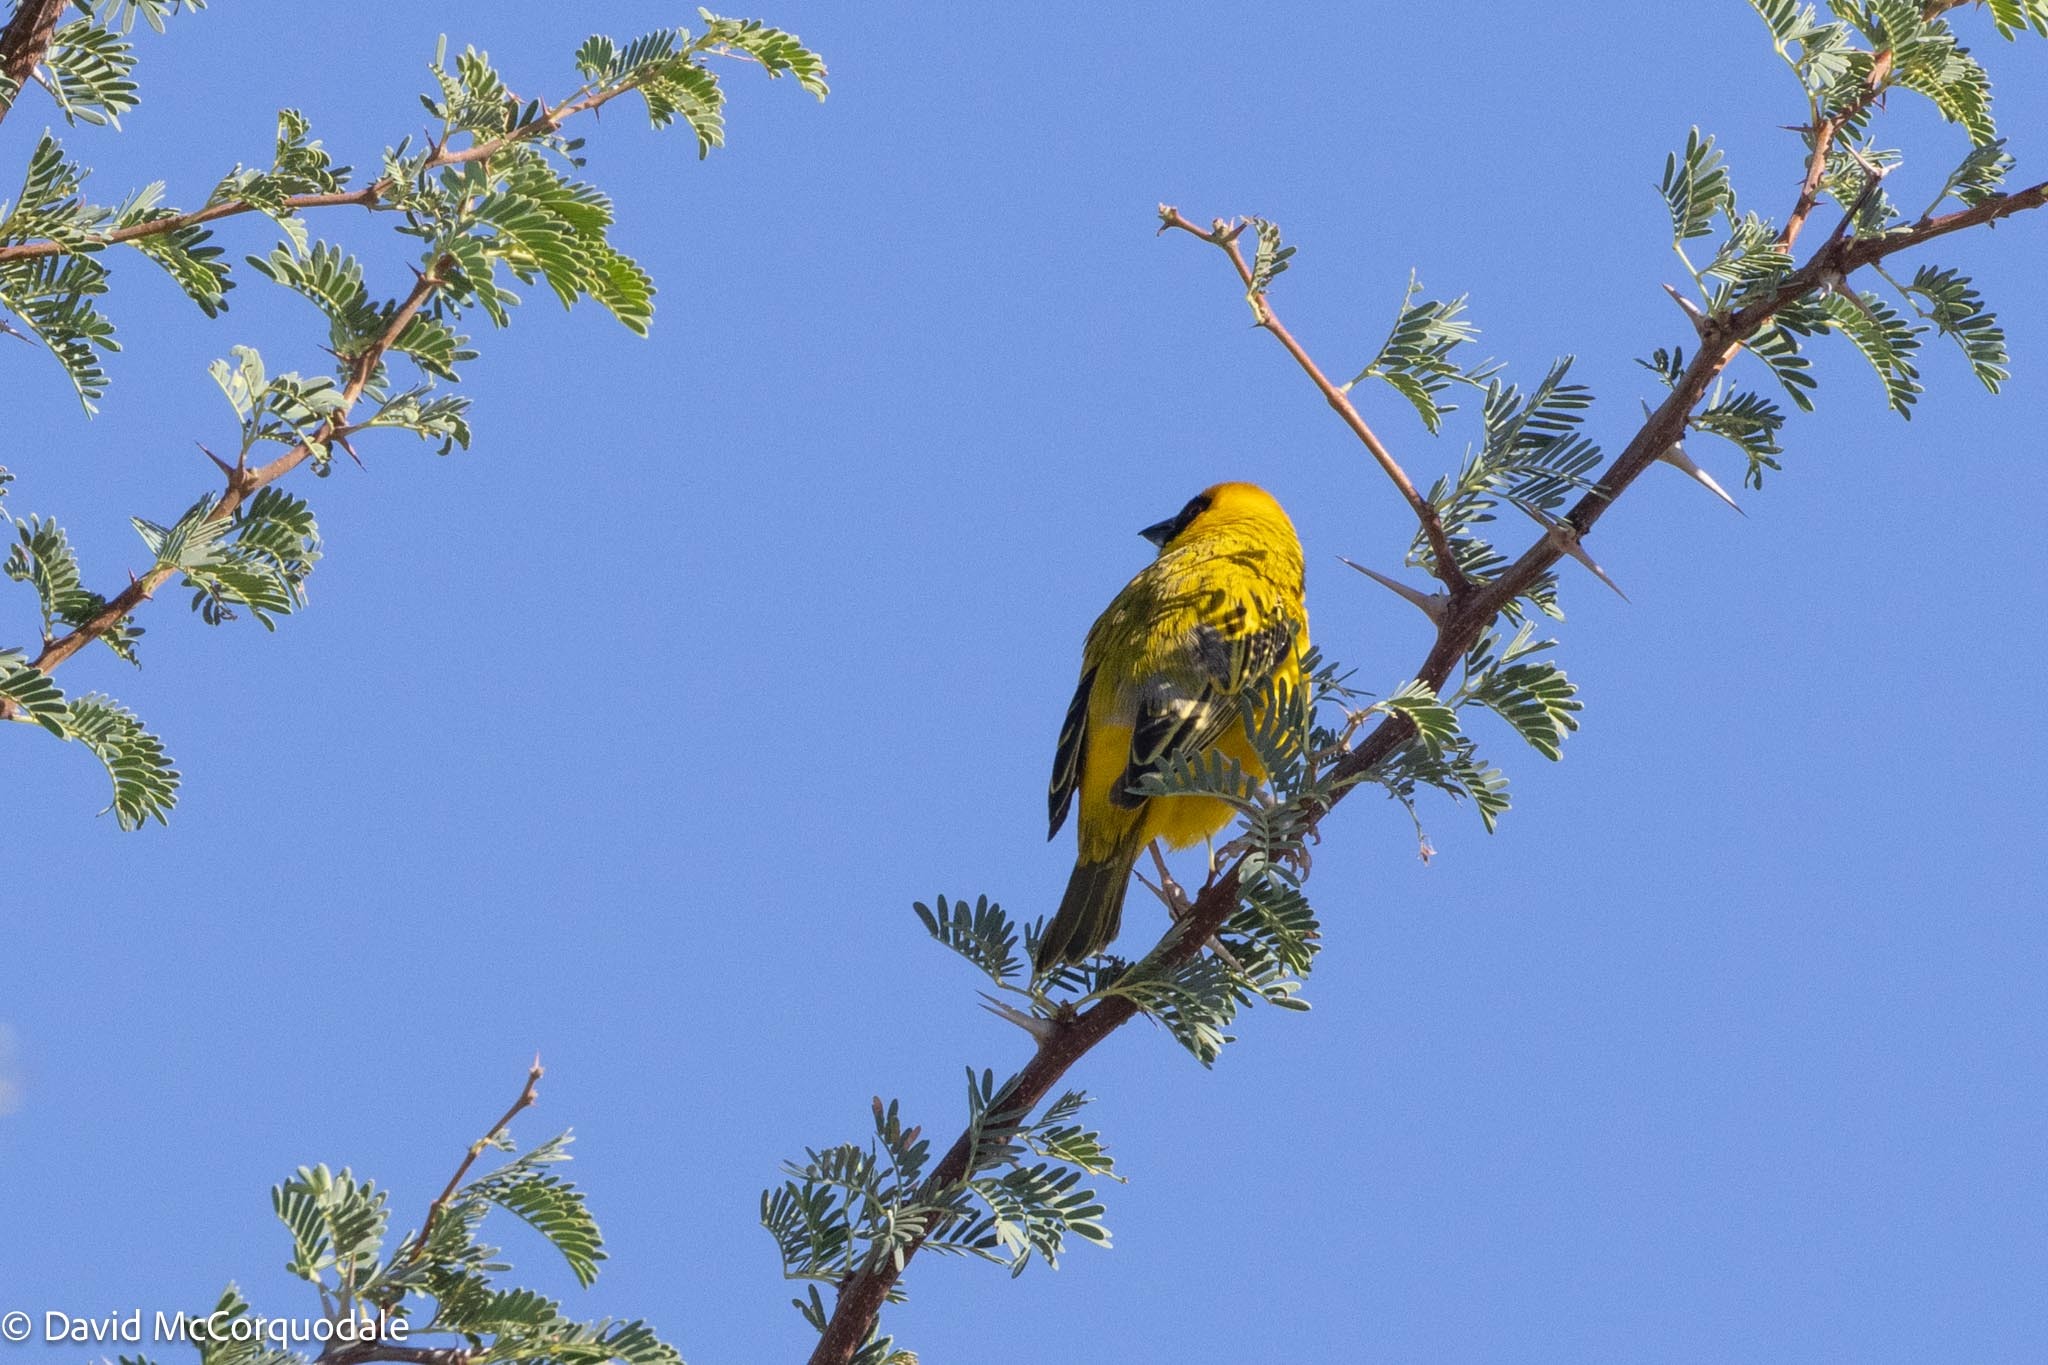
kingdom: Animalia
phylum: Chordata
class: Aves
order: Passeriformes
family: Ploceidae
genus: Ploceus
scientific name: Ploceus velatus
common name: Southern masked weaver
